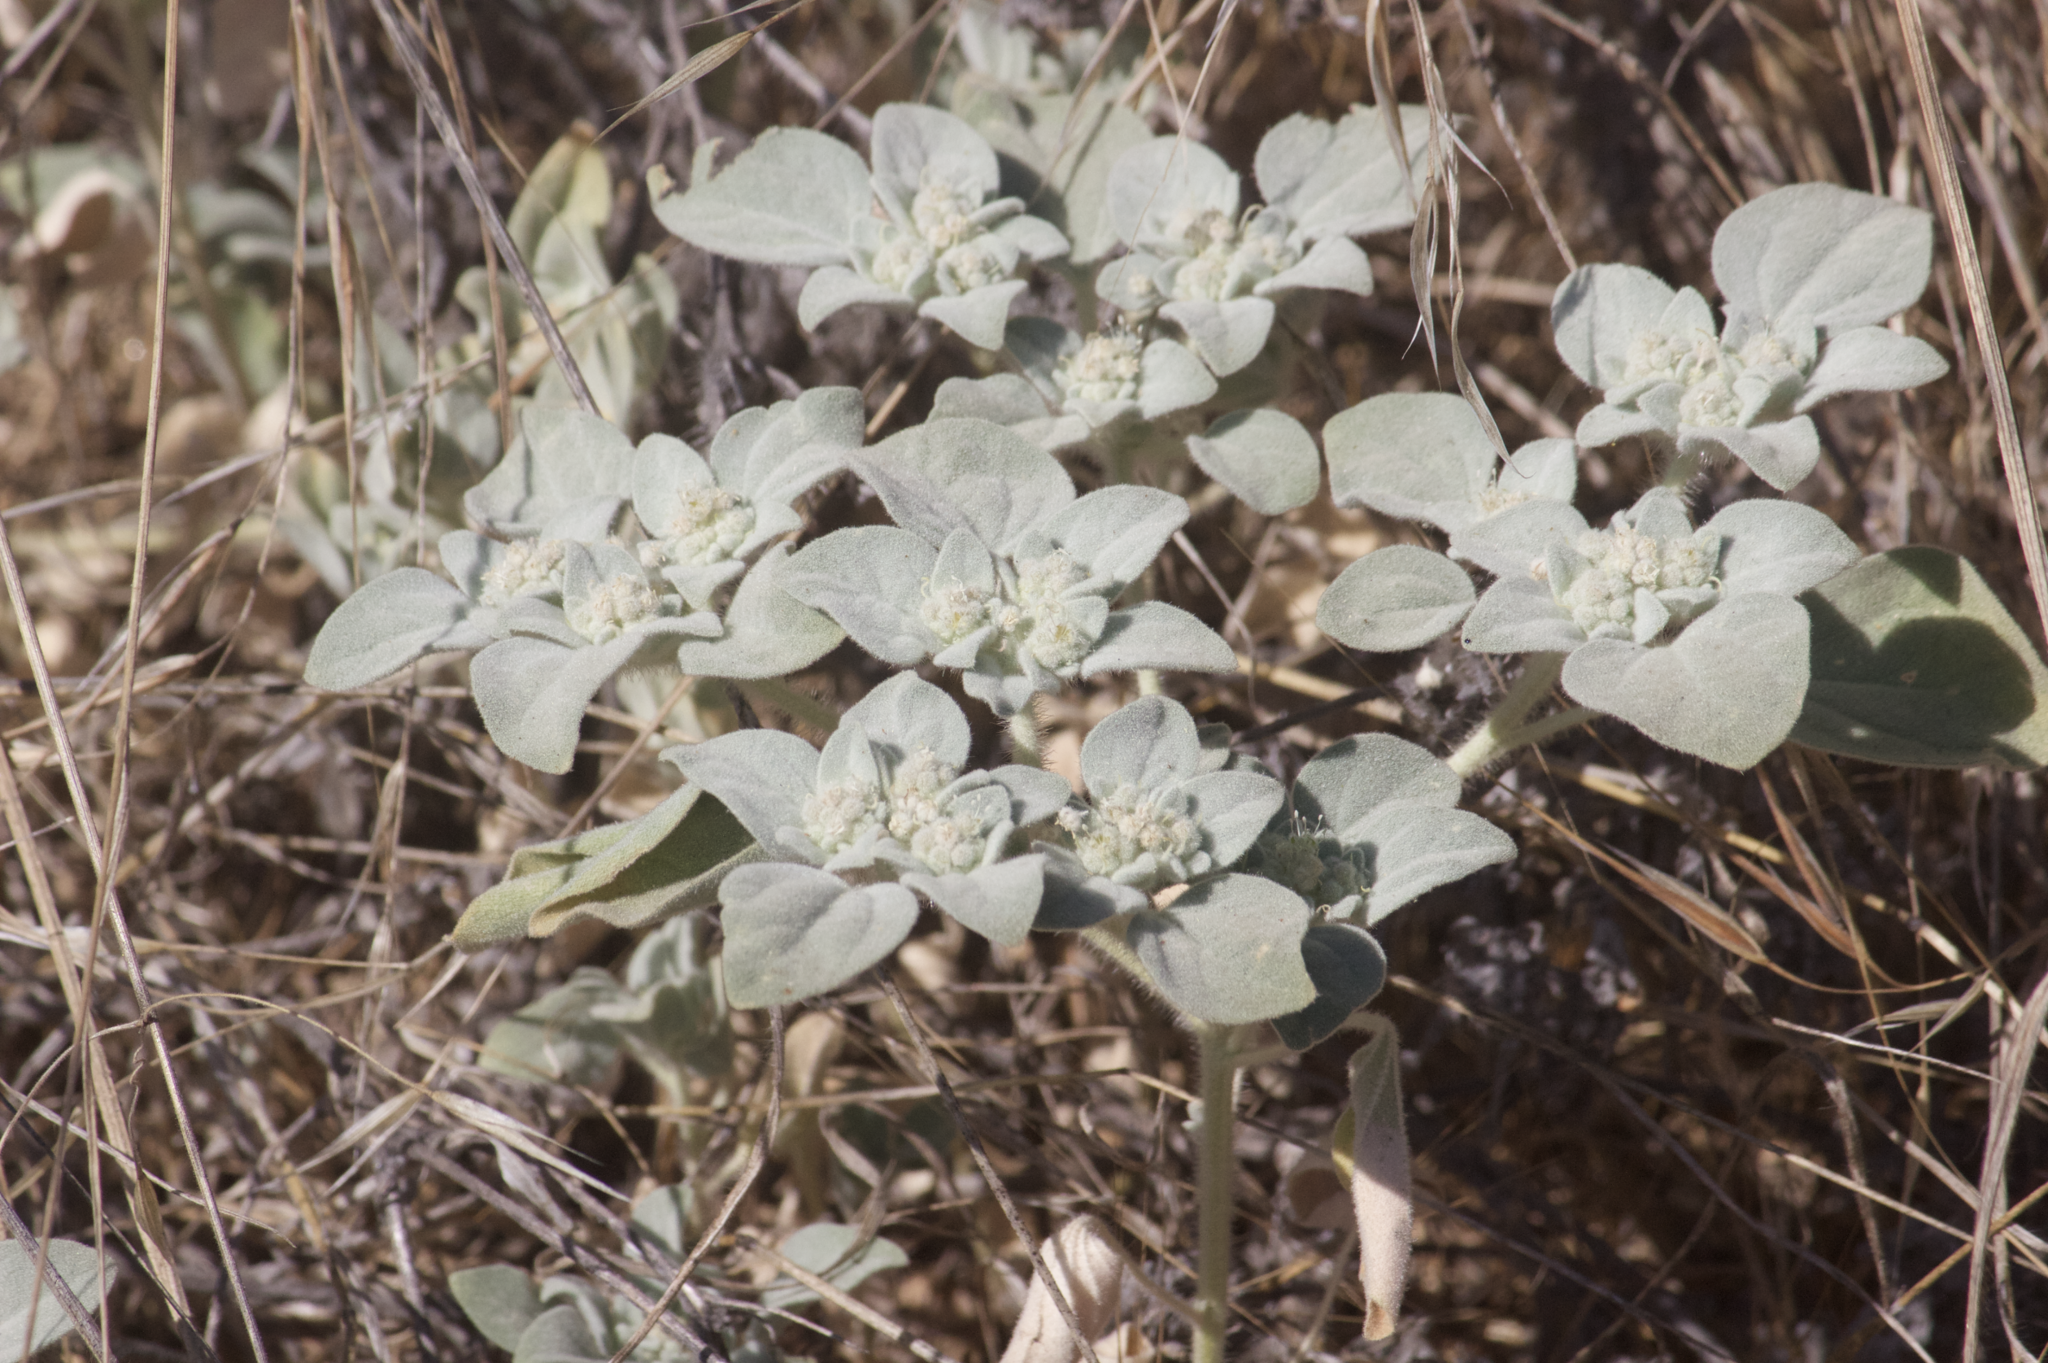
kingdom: Plantae
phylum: Tracheophyta
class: Magnoliopsida
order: Malpighiales
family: Euphorbiaceae
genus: Croton
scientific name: Croton setiger
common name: Dove weed
